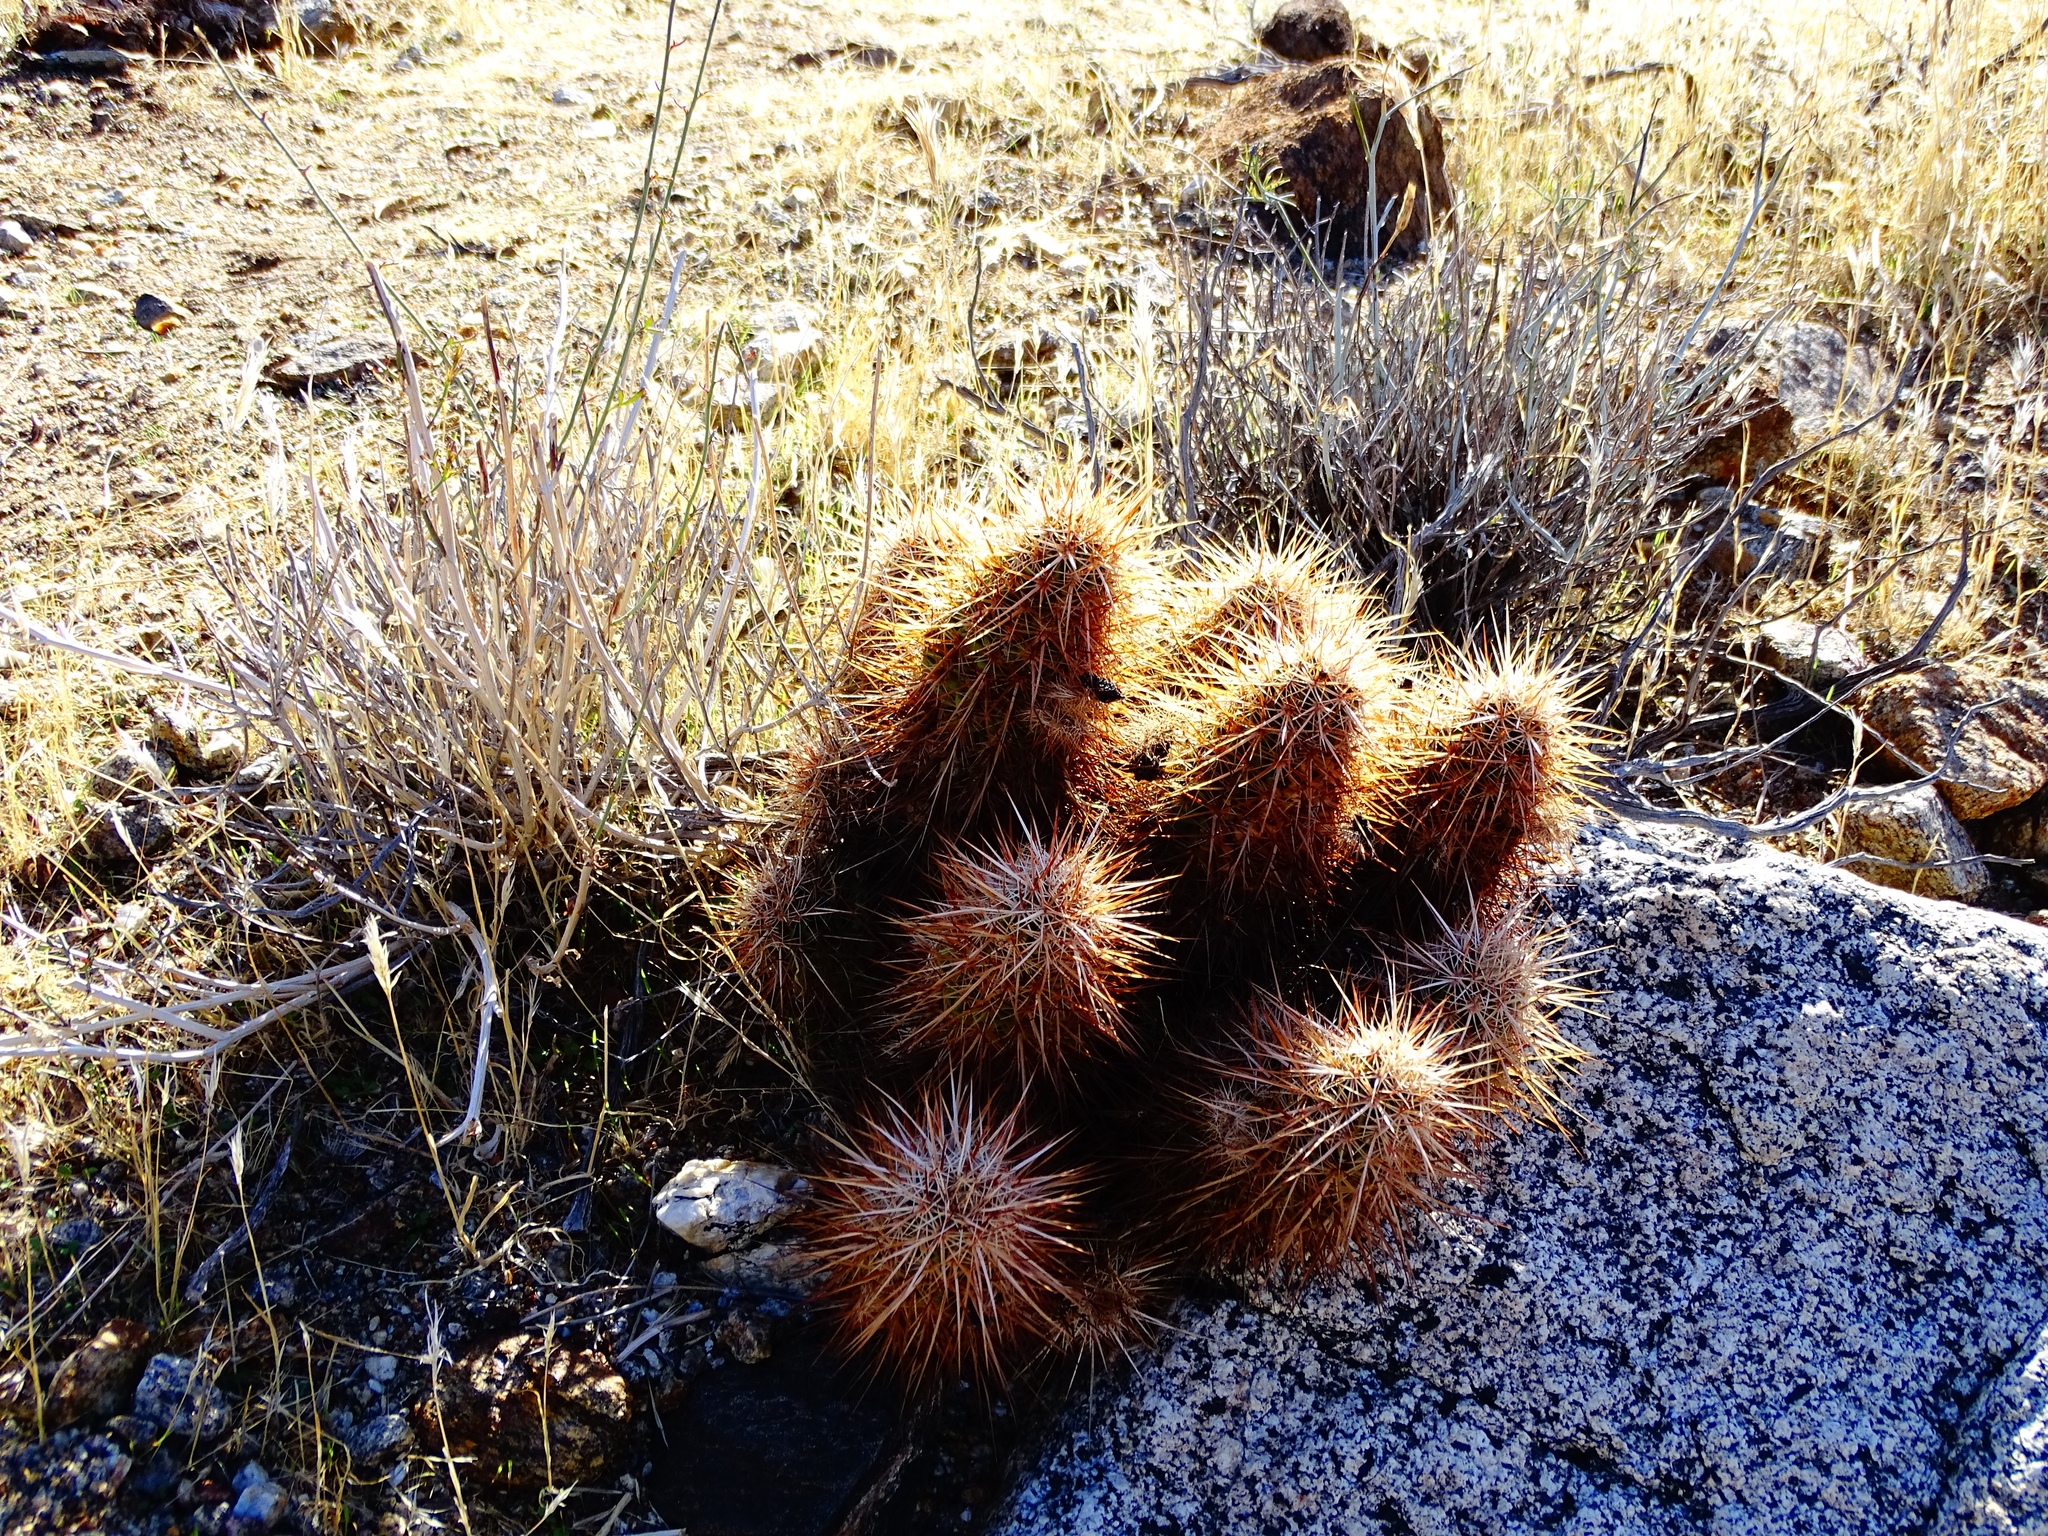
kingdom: Plantae
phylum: Tracheophyta
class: Magnoliopsida
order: Caryophyllales
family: Cactaceae
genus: Echinocereus
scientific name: Echinocereus engelmannii
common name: Engelmann's hedgehog cactus
